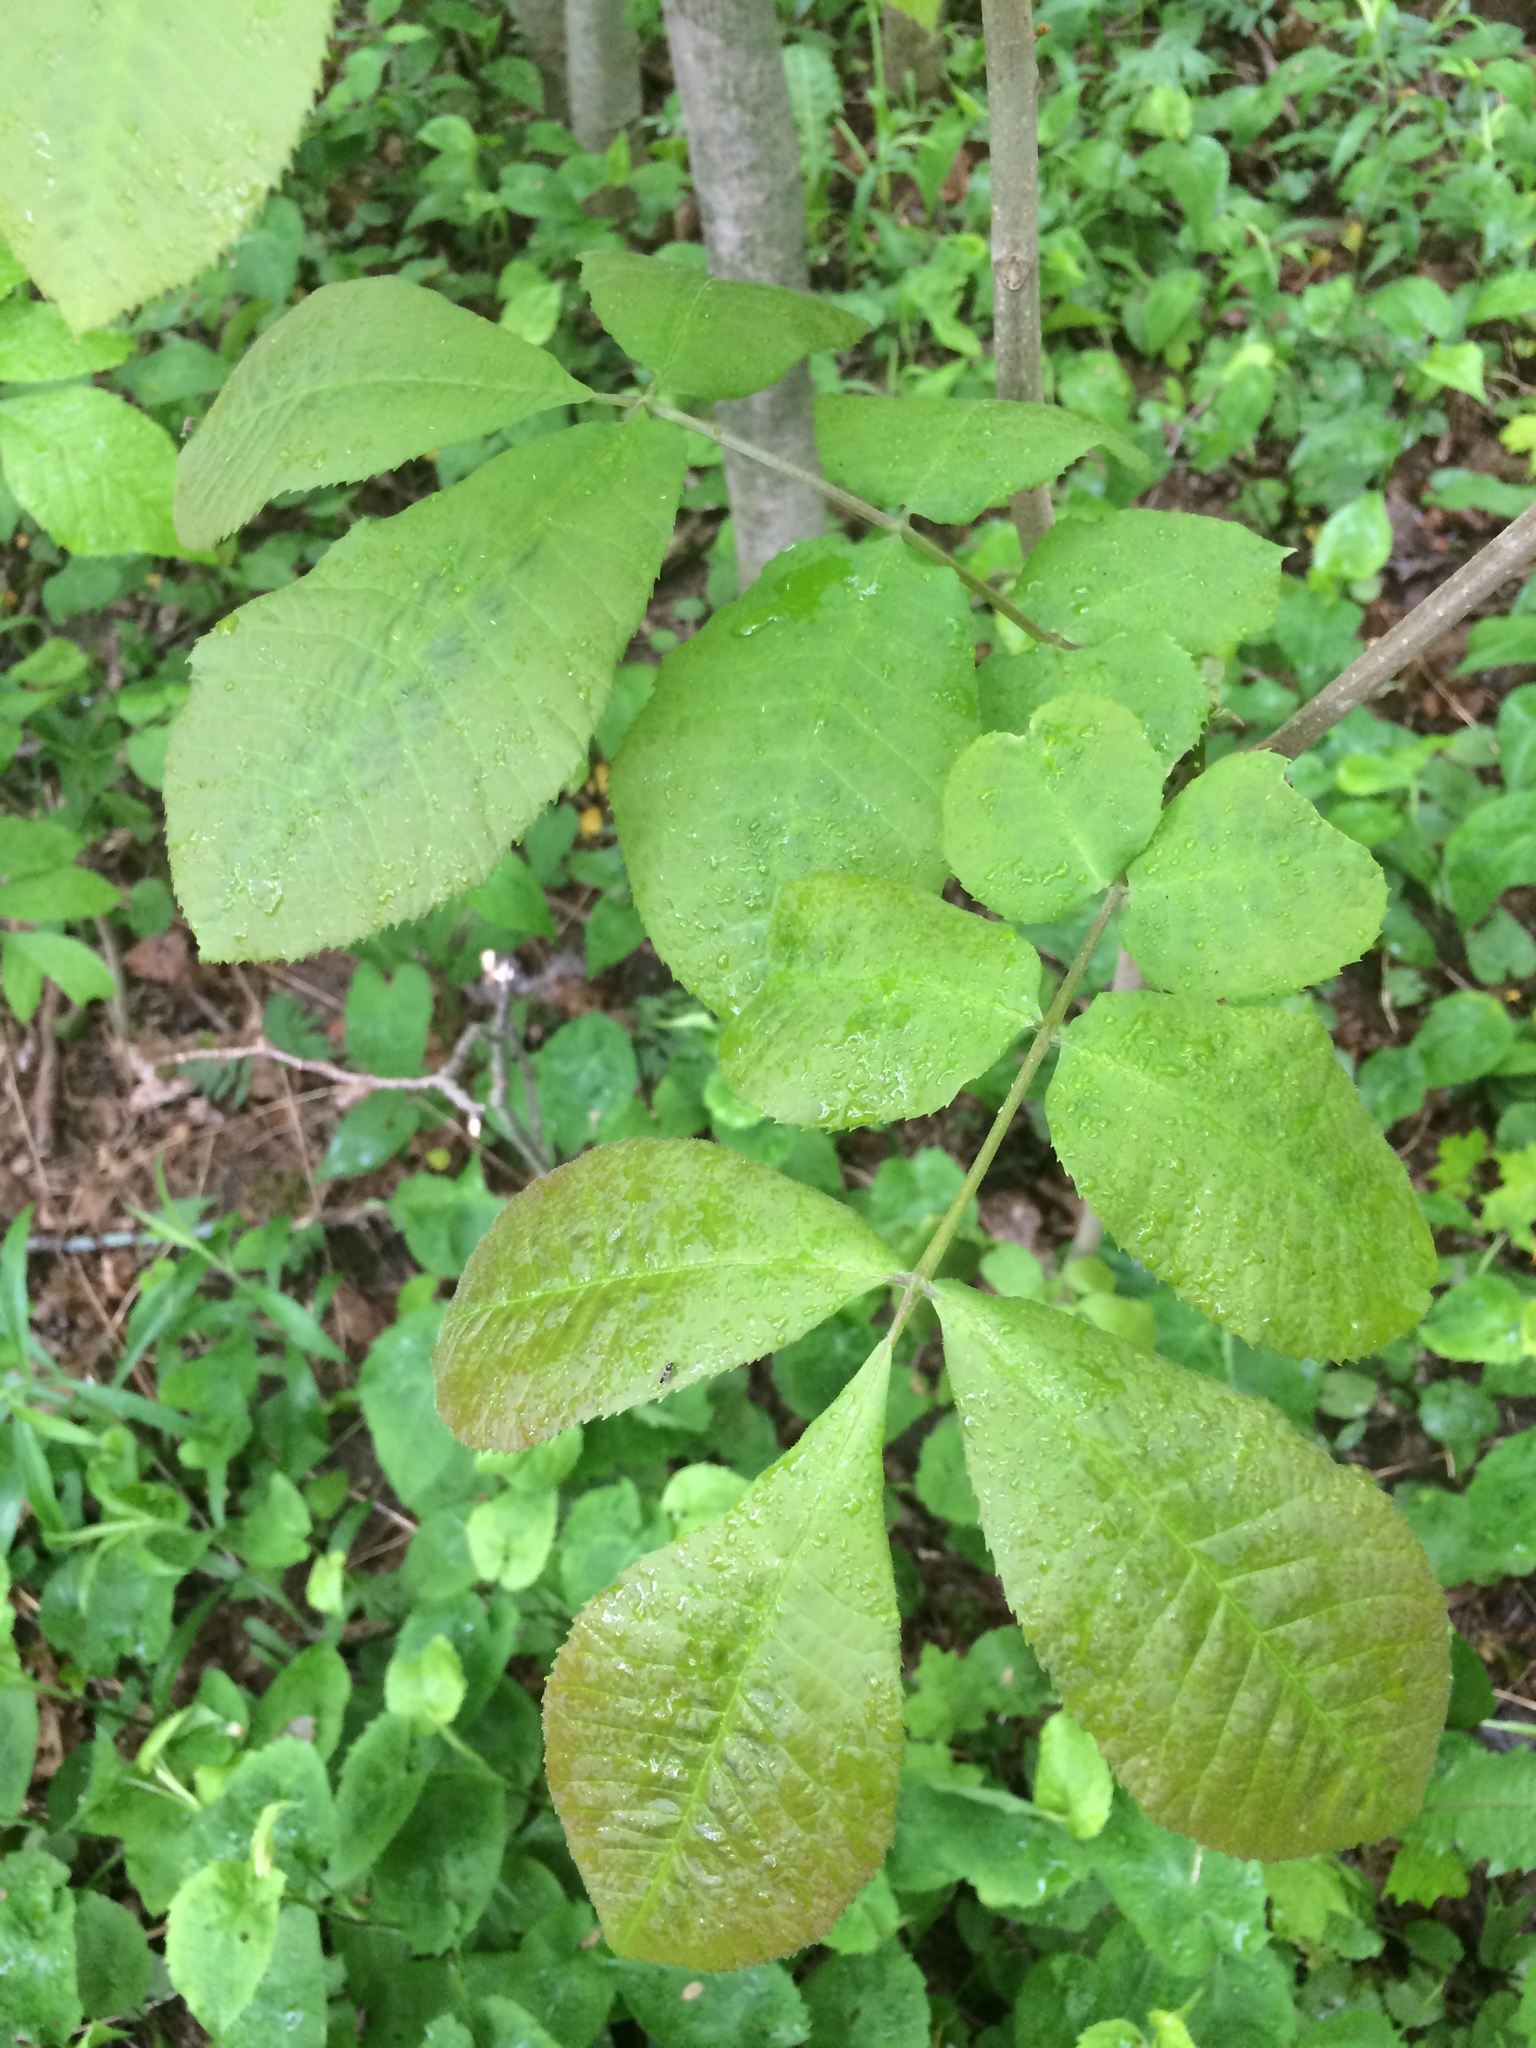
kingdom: Plantae
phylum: Tracheophyta
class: Magnoliopsida
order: Fagales
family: Juglandaceae
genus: Carya
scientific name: Carya cordiformis
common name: Bitternut hickory
